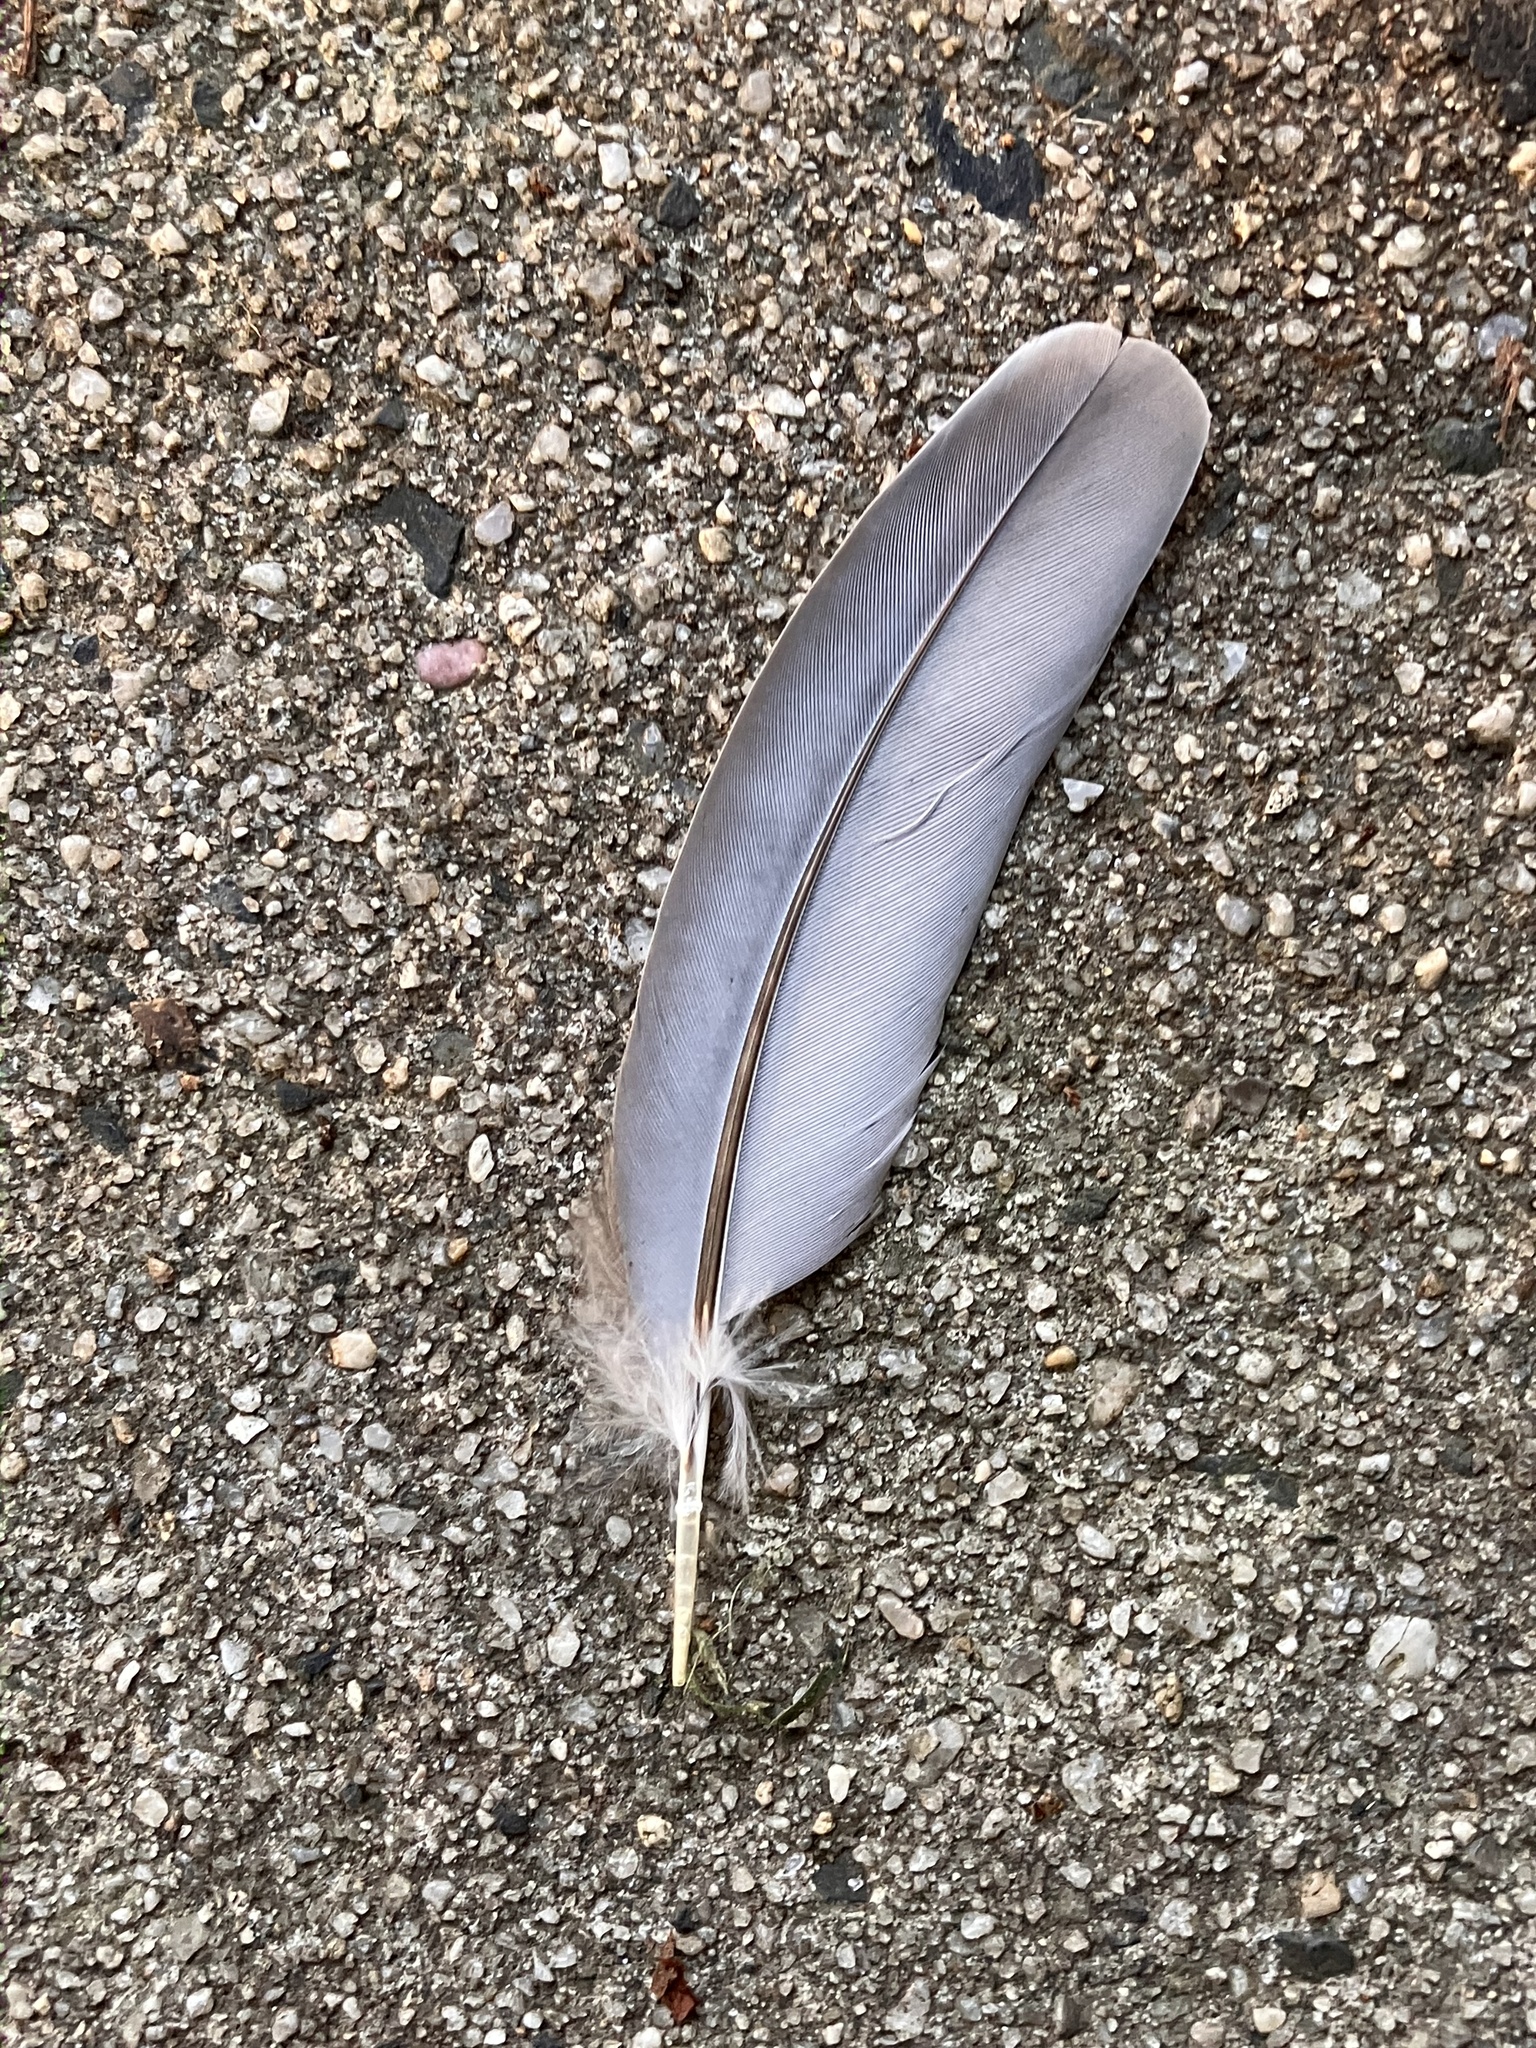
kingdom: Animalia
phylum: Chordata
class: Aves
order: Columbiformes
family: Columbidae
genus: Zenaida
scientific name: Zenaida macroura
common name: Mourning dove
